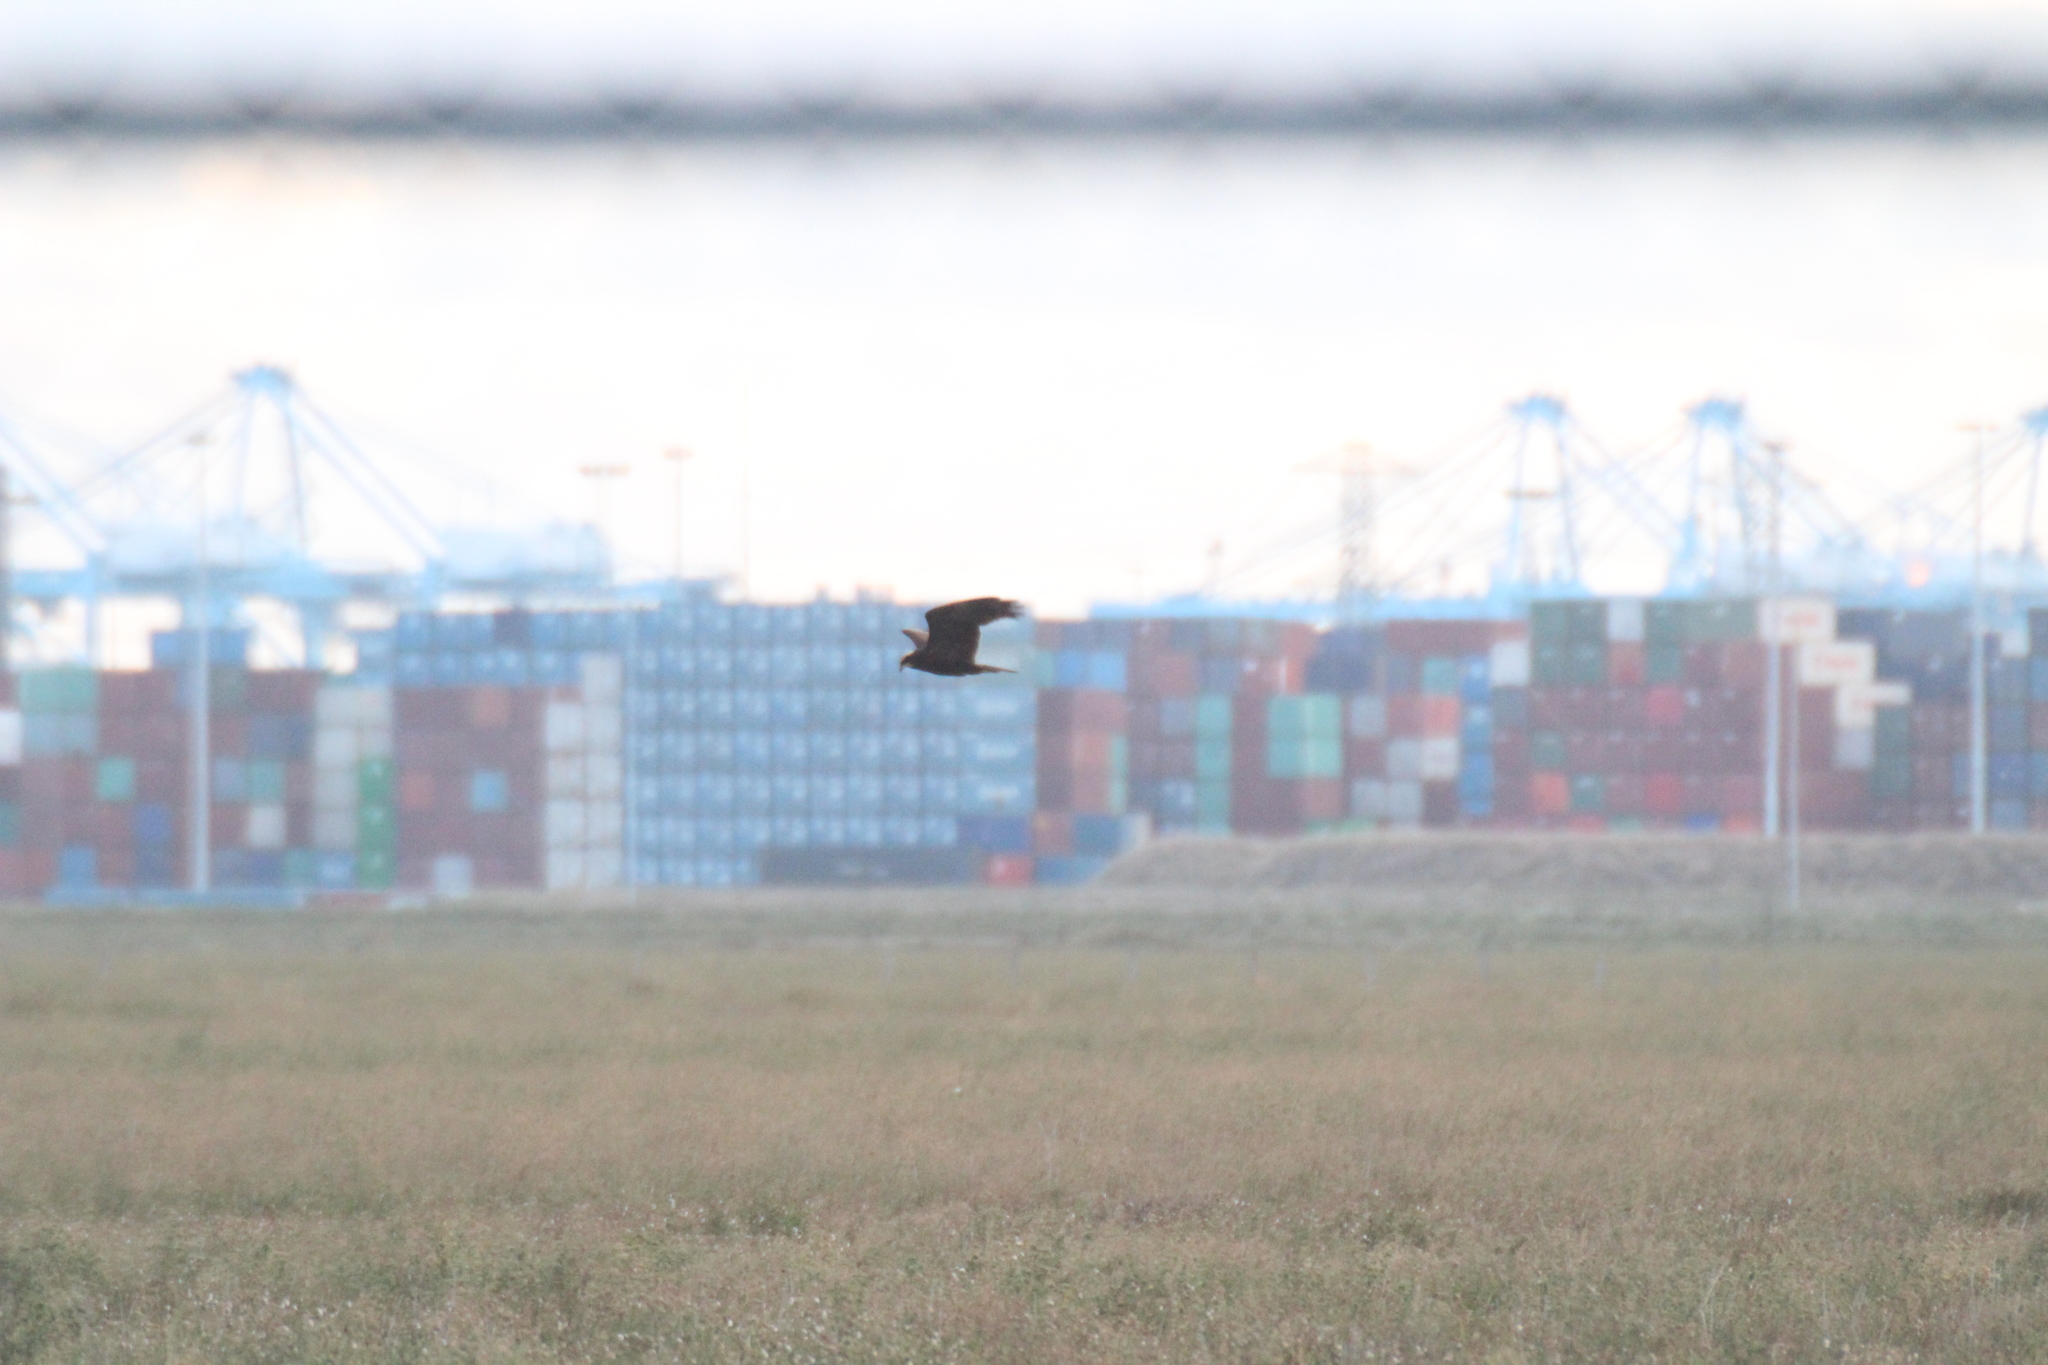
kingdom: Animalia
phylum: Chordata
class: Aves
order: Accipitriformes
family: Accipitridae
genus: Circus
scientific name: Circus aeruginosus
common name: Western marsh harrier
